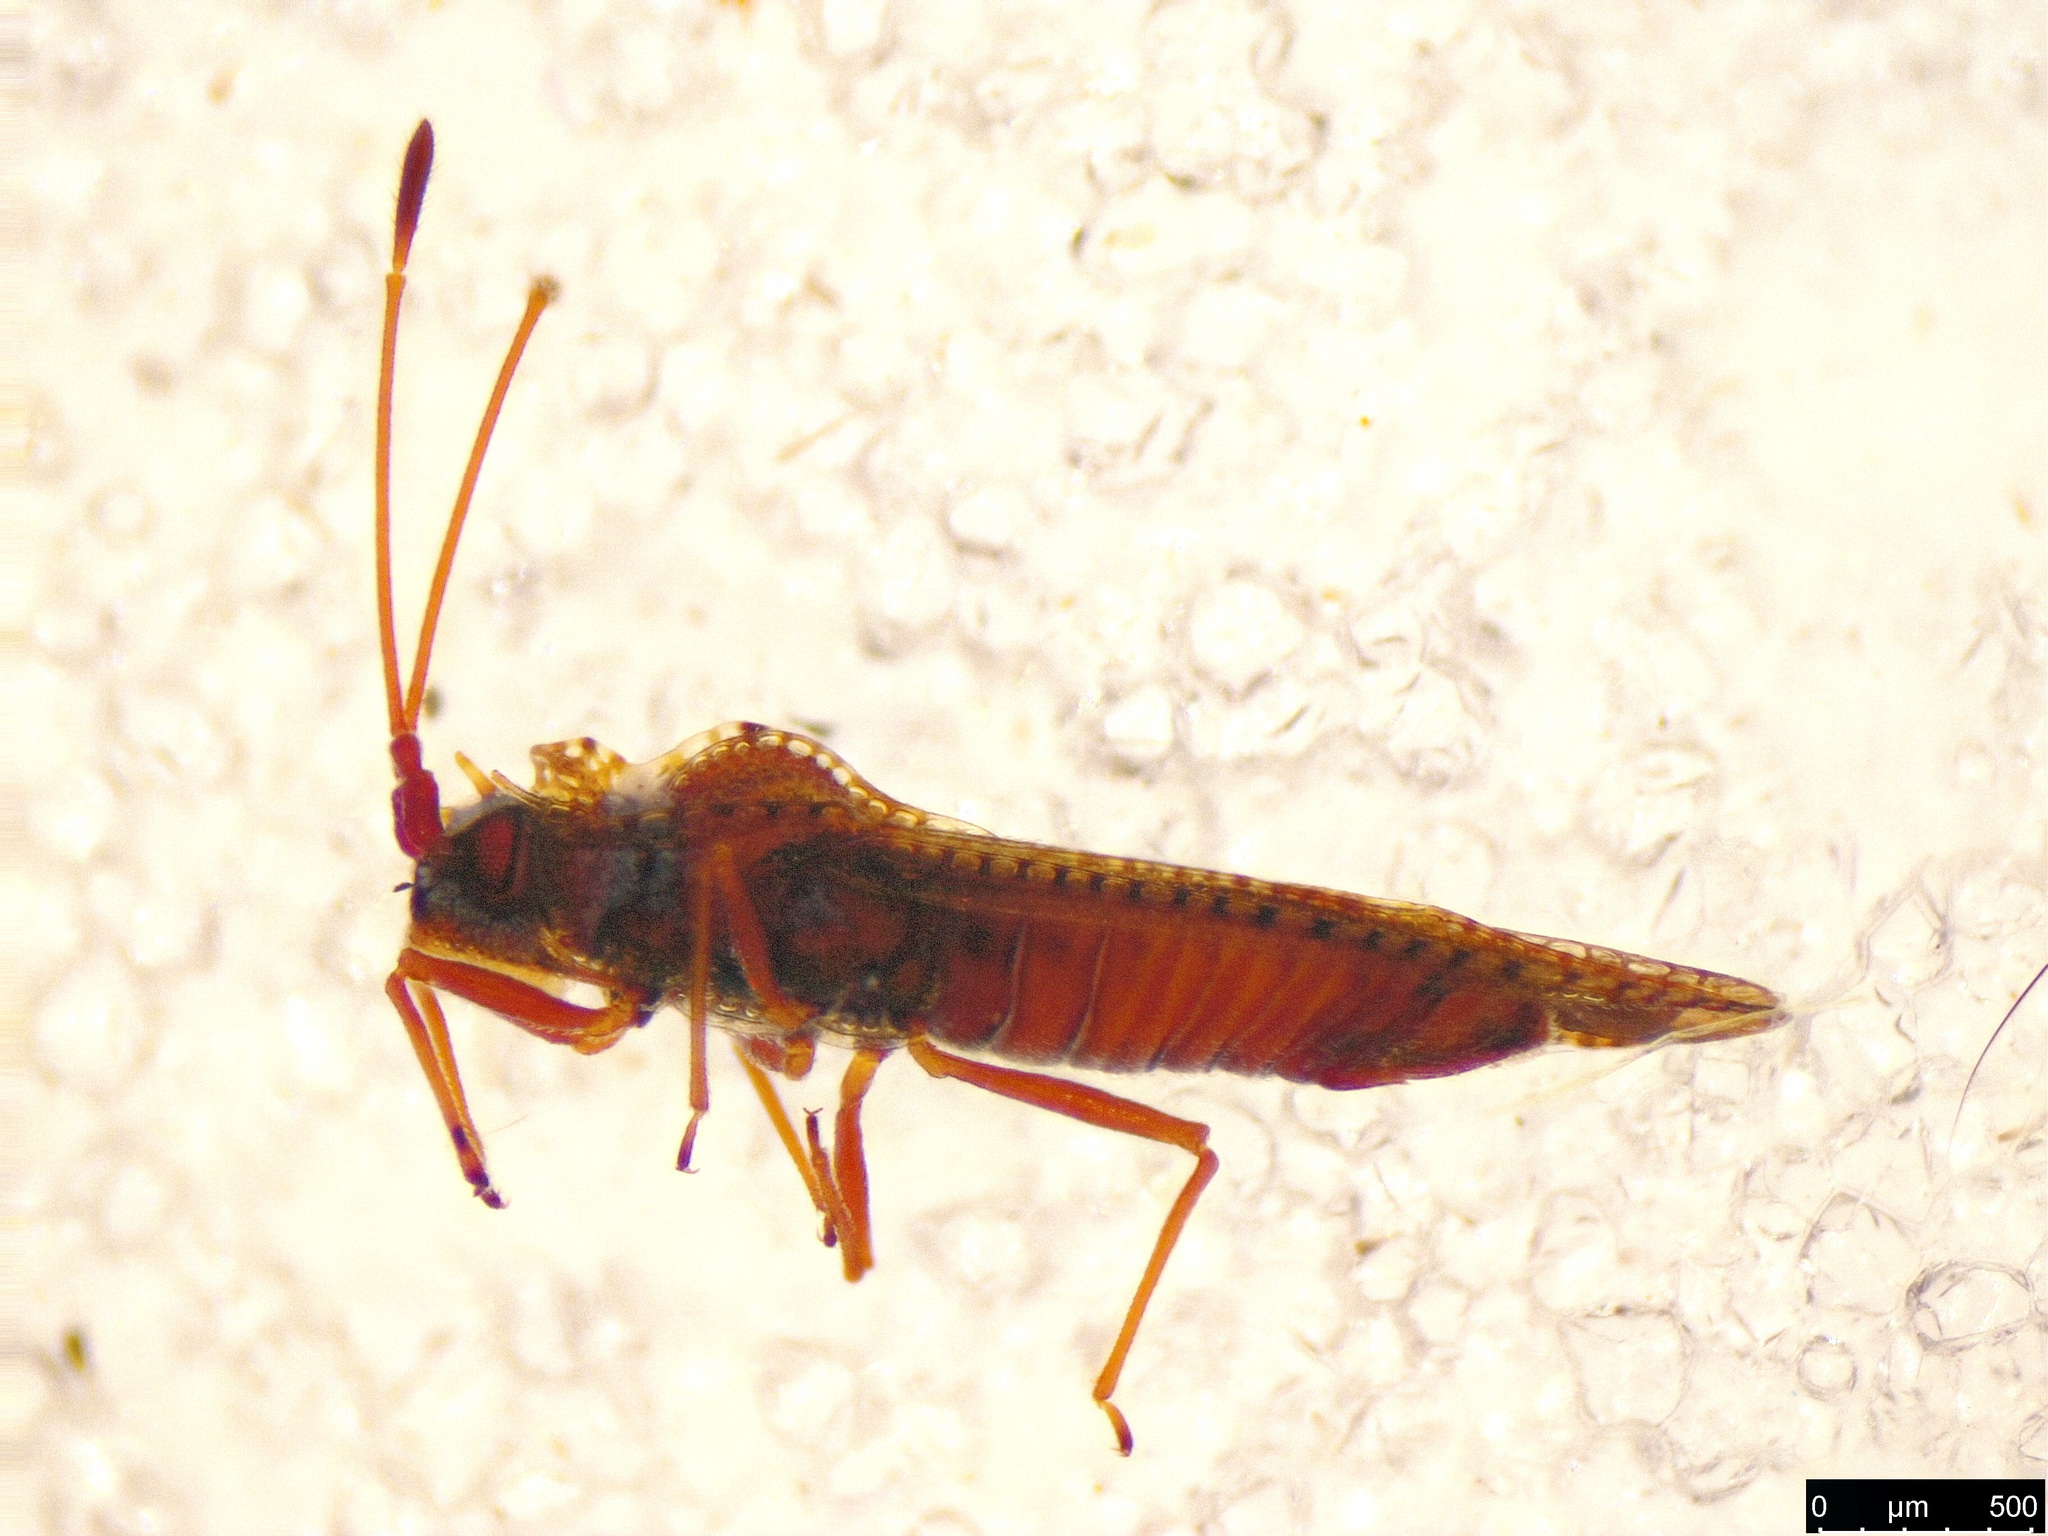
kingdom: Animalia
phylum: Arthropoda
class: Insecta
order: Hemiptera
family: Tingidae
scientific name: Tingidae
